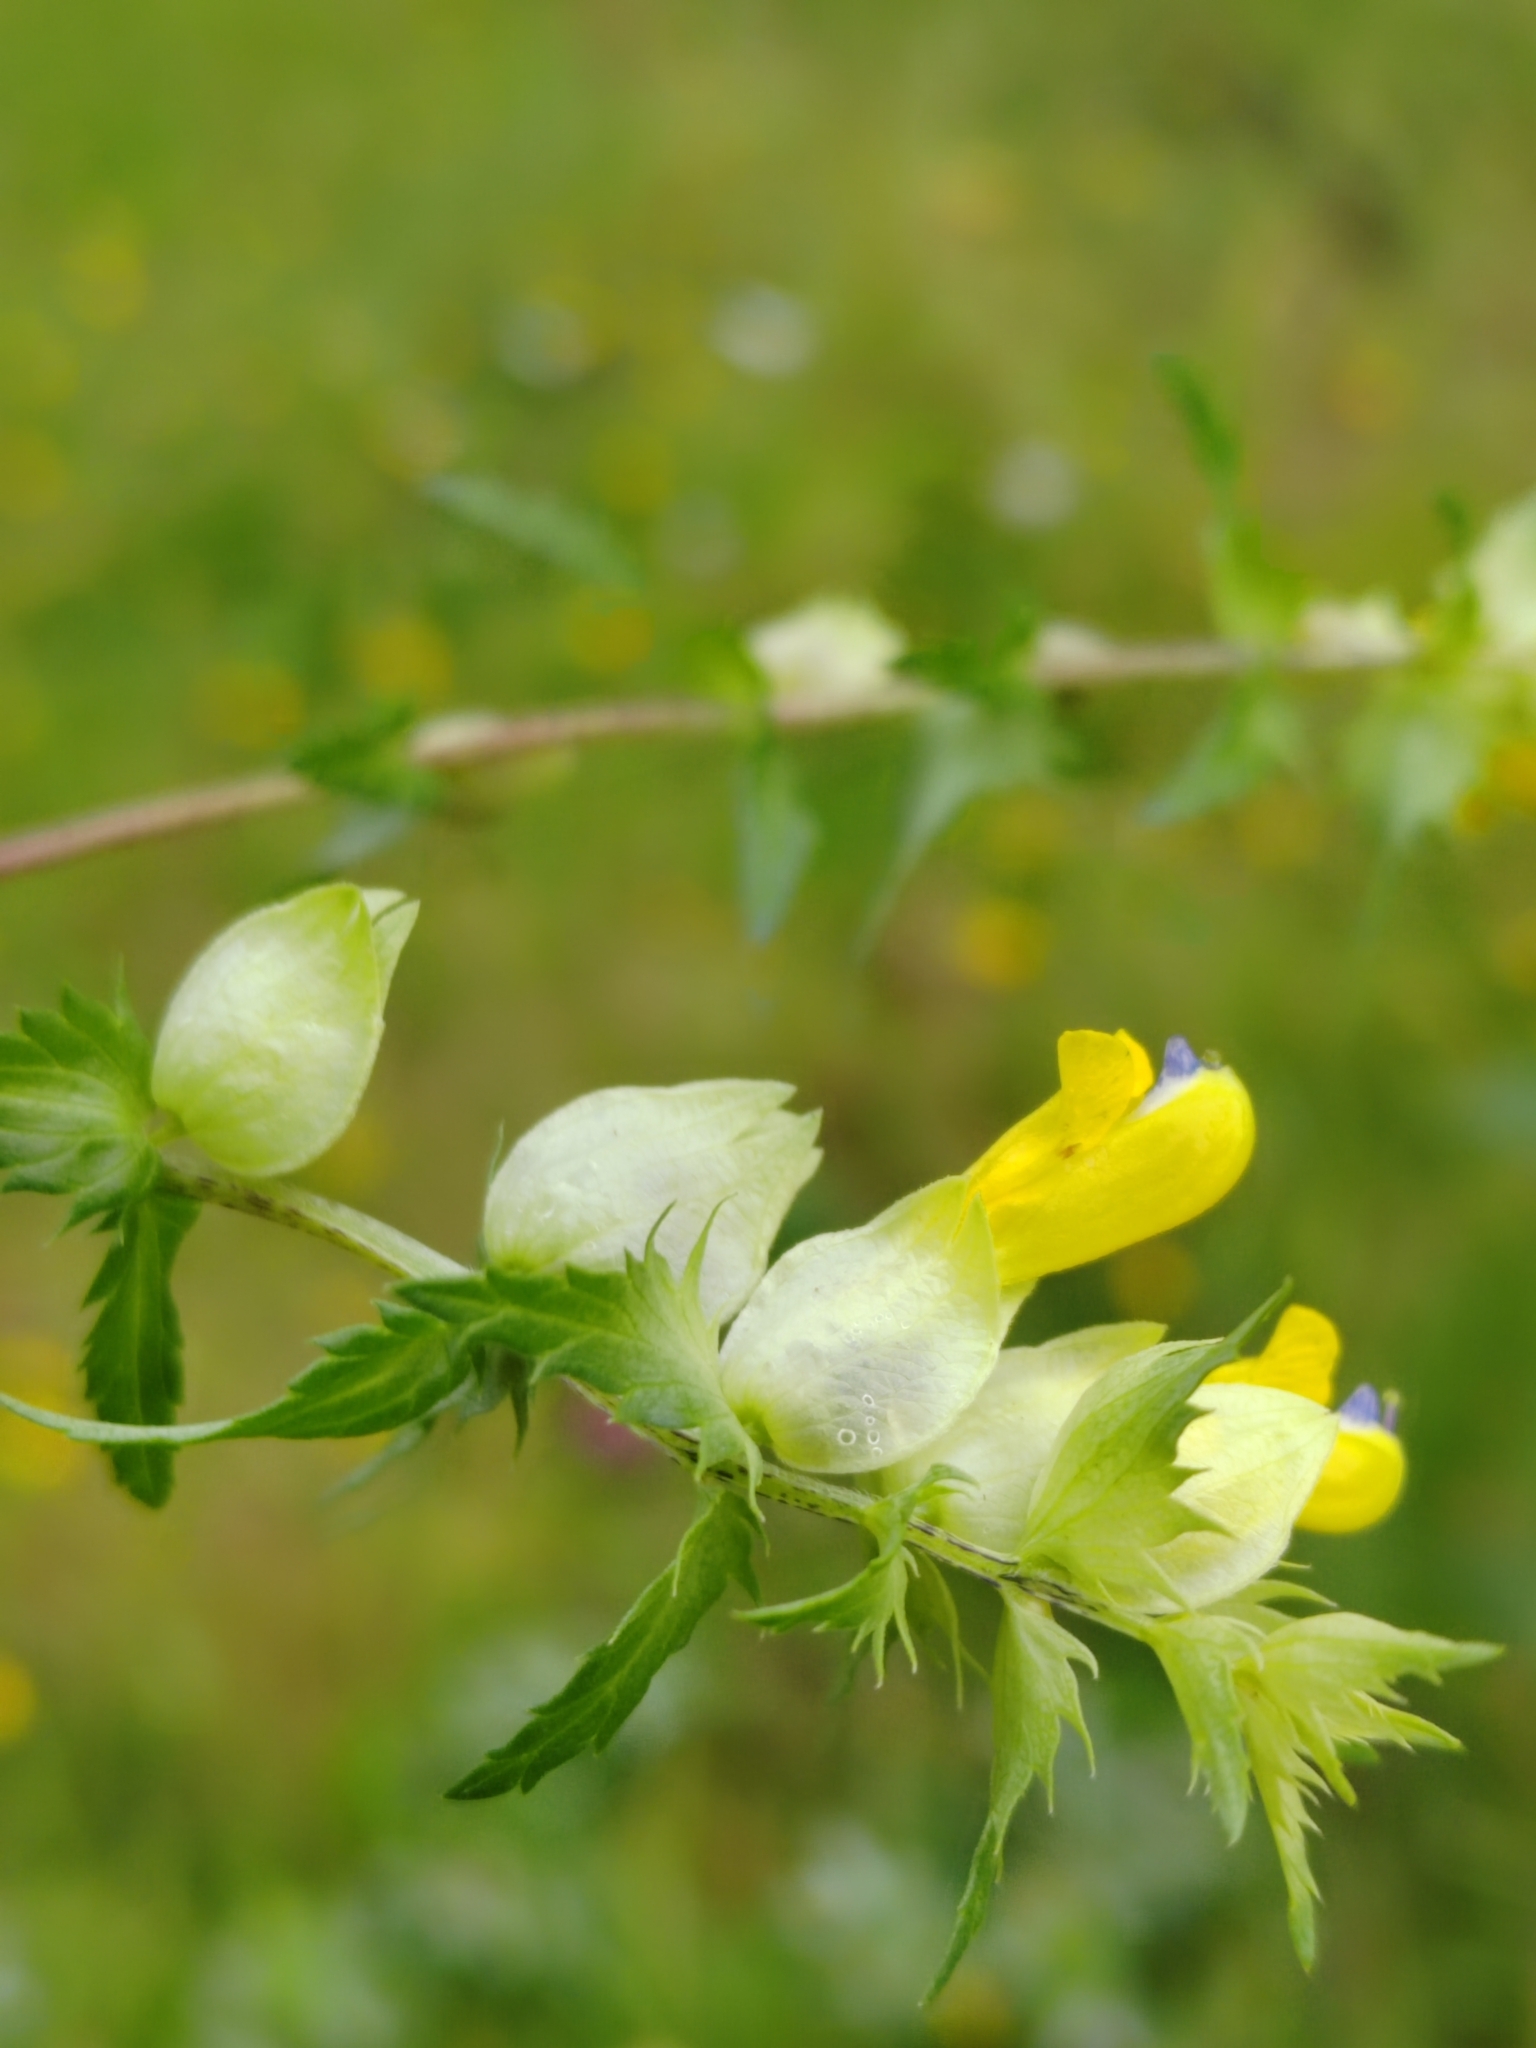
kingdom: Plantae
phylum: Tracheophyta
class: Magnoliopsida
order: Lamiales
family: Orobanchaceae
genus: Rhinanthus
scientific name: Rhinanthus serotinus
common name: Late-flowering yellow rattle
